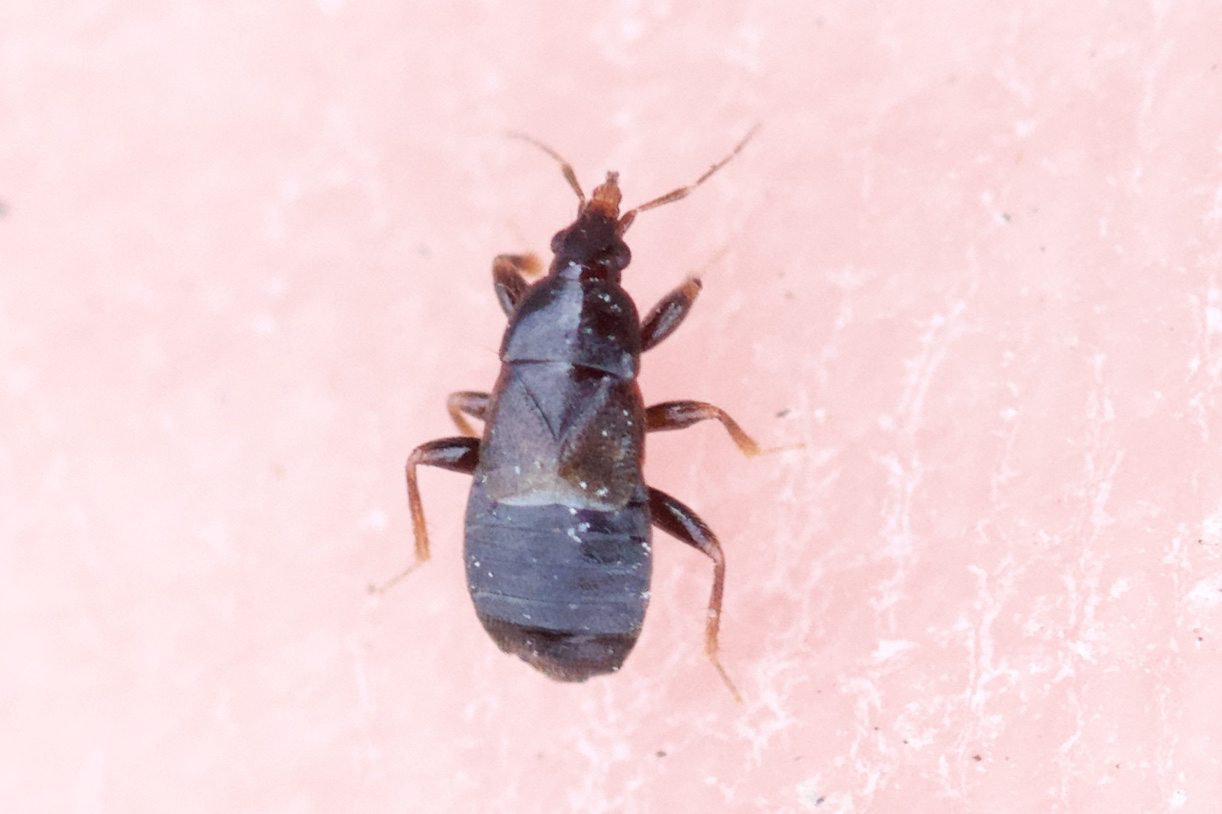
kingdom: Animalia
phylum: Arthropoda
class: Insecta
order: Hemiptera
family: Anthocoridae
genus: Xylocoris
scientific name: Xylocoris cursitans
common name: Minute pirate bug
